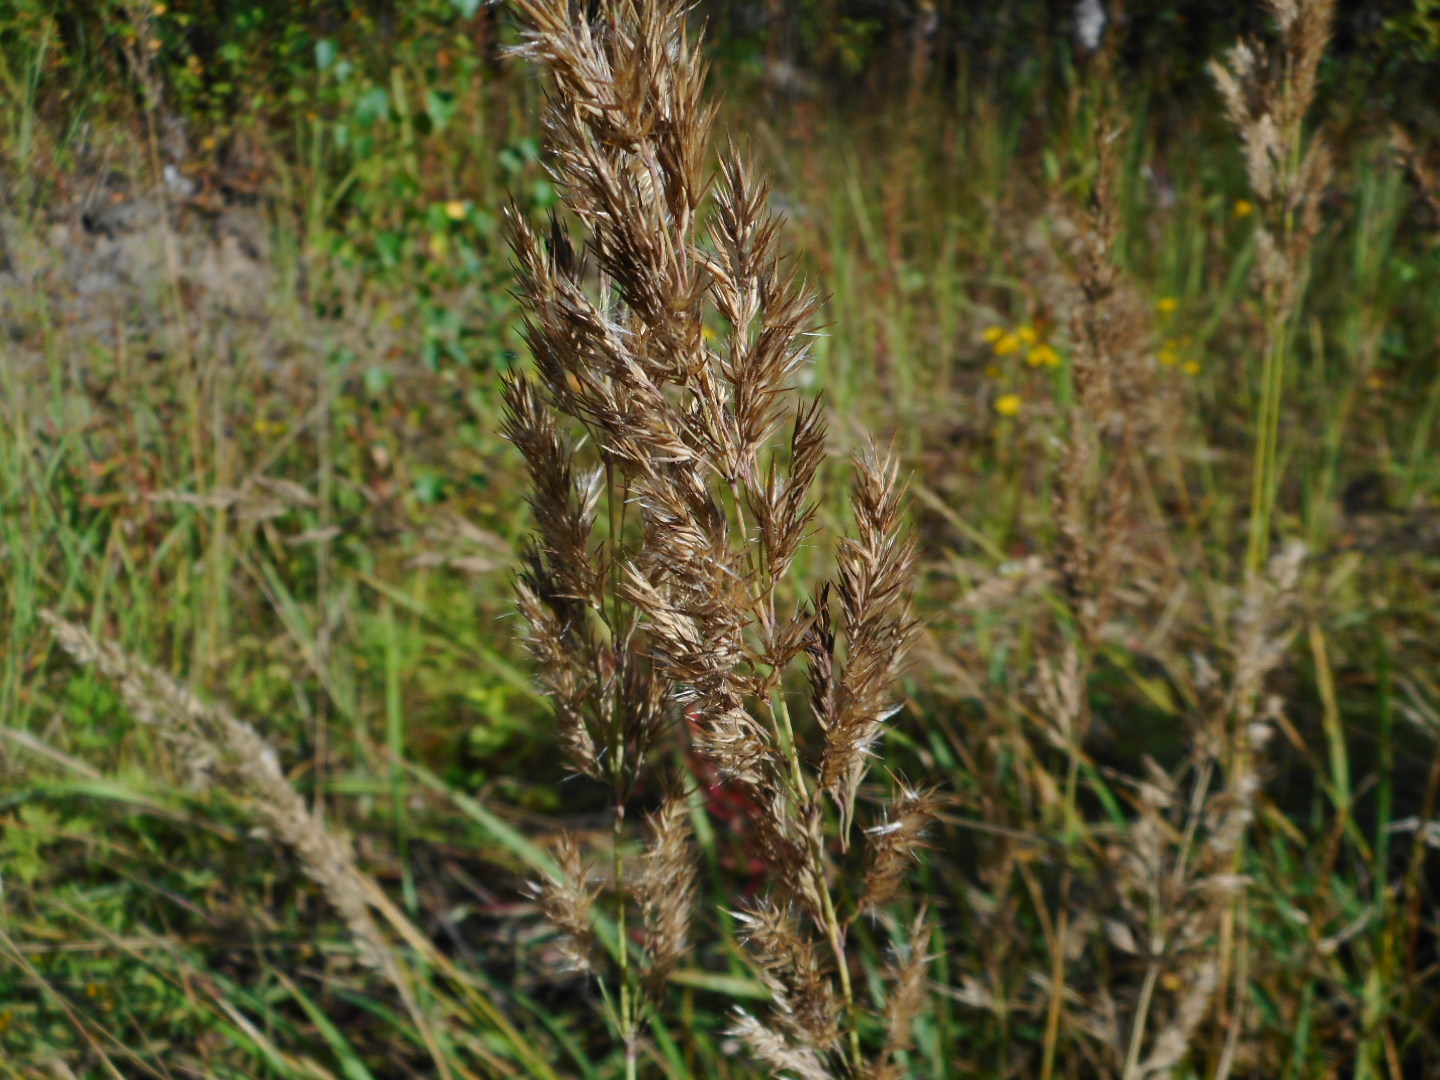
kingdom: Plantae
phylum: Tracheophyta
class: Liliopsida
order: Poales
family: Poaceae
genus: Calamagrostis
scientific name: Calamagrostis epigejos
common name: Wood small-reed
